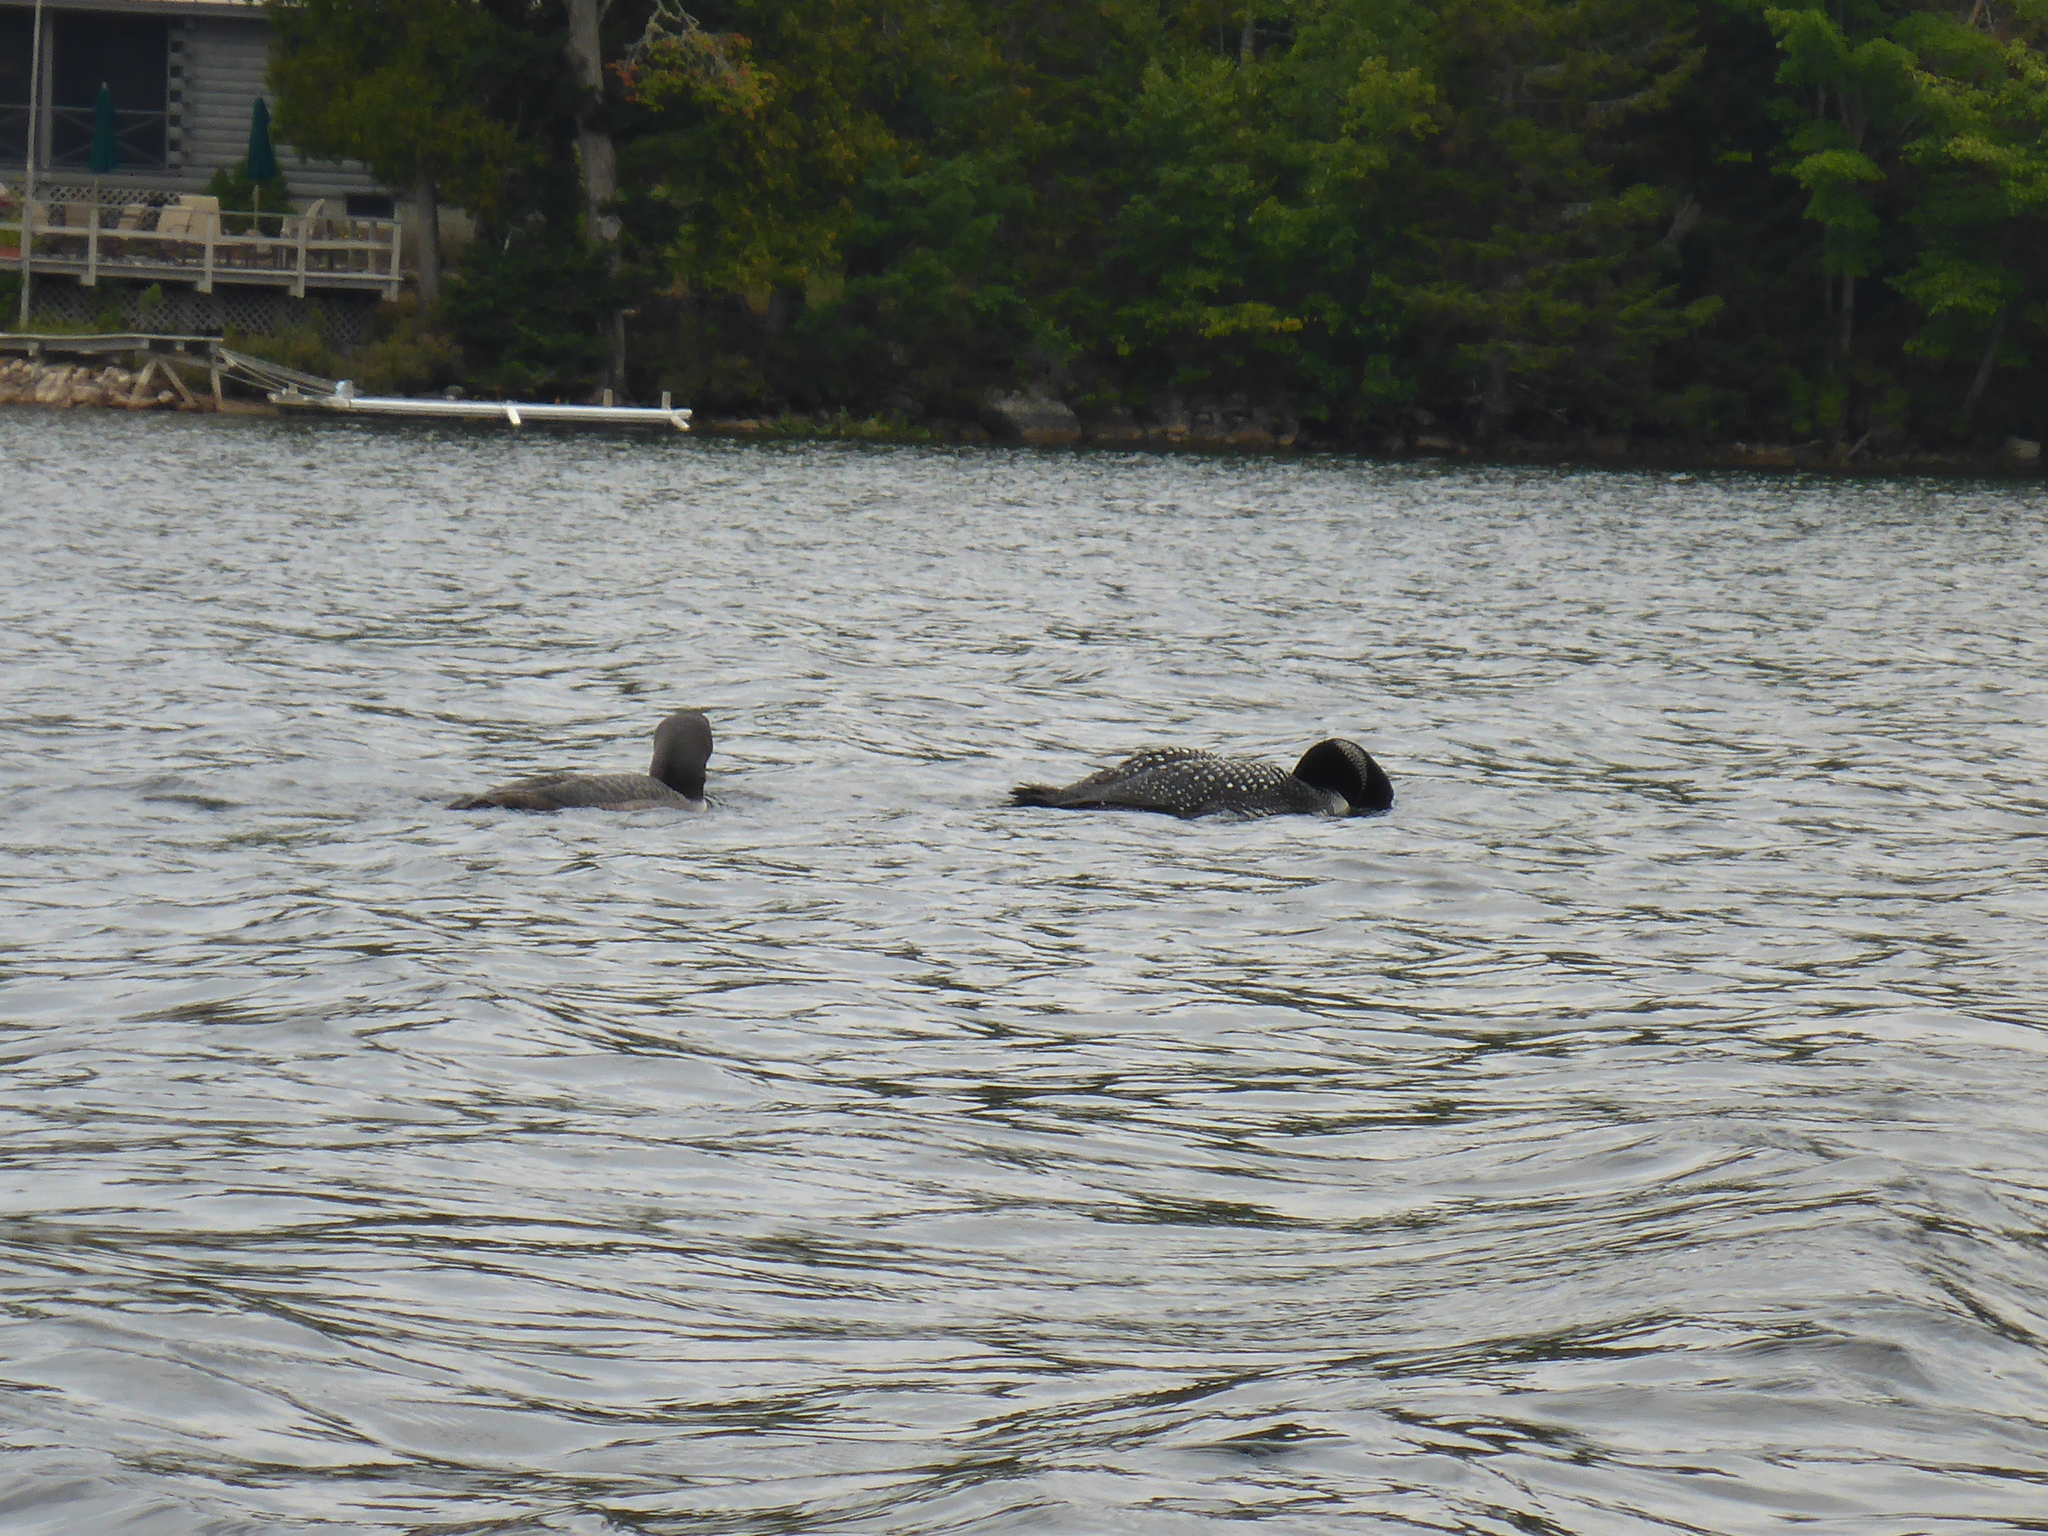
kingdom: Animalia
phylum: Chordata
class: Aves
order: Gaviiformes
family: Gaviidae
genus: Gavia
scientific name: Gavia immer
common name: Common loon
